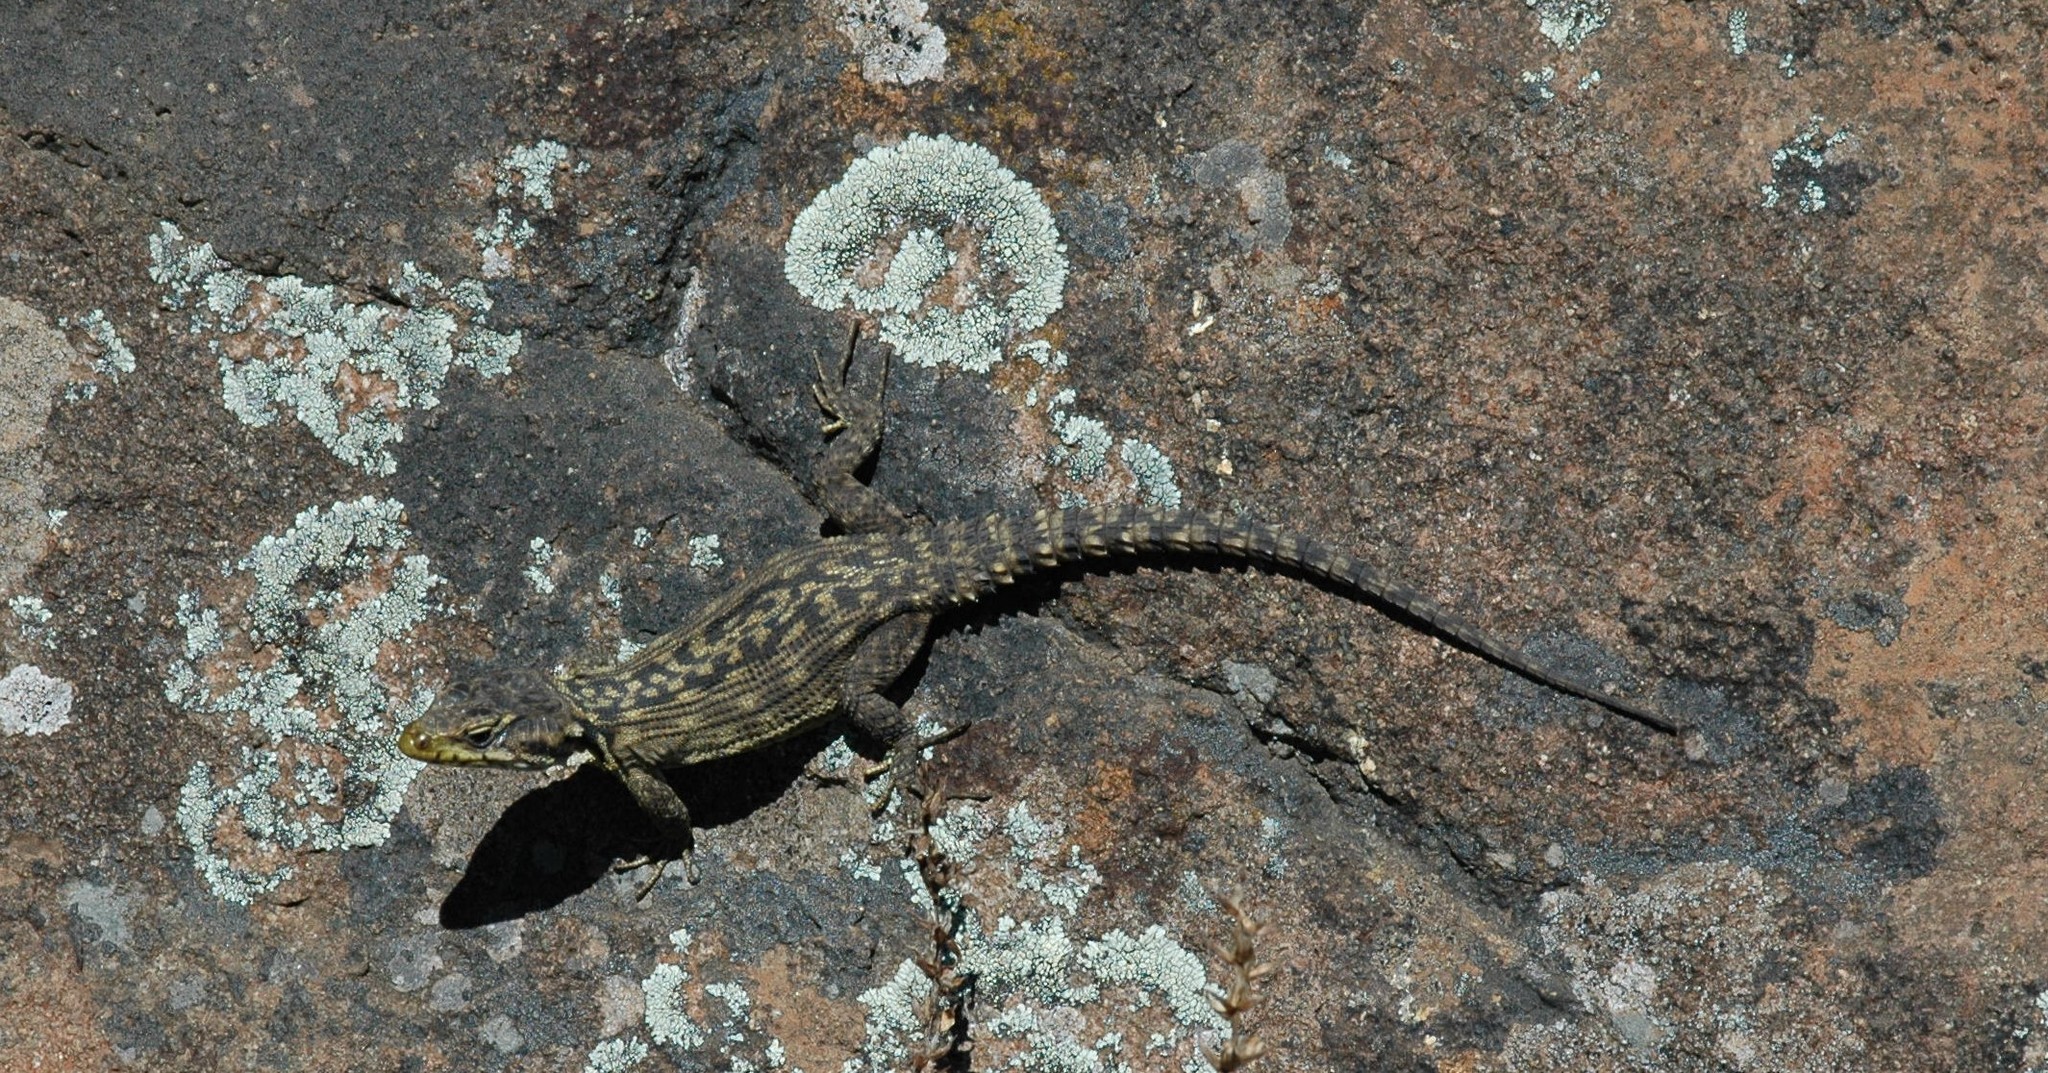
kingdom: Animalia
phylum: Chordata
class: Squamata
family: Cordylidae
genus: Pseudocordylus
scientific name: Pseudocordylus subviridis
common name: Drakensberg crag lizard
